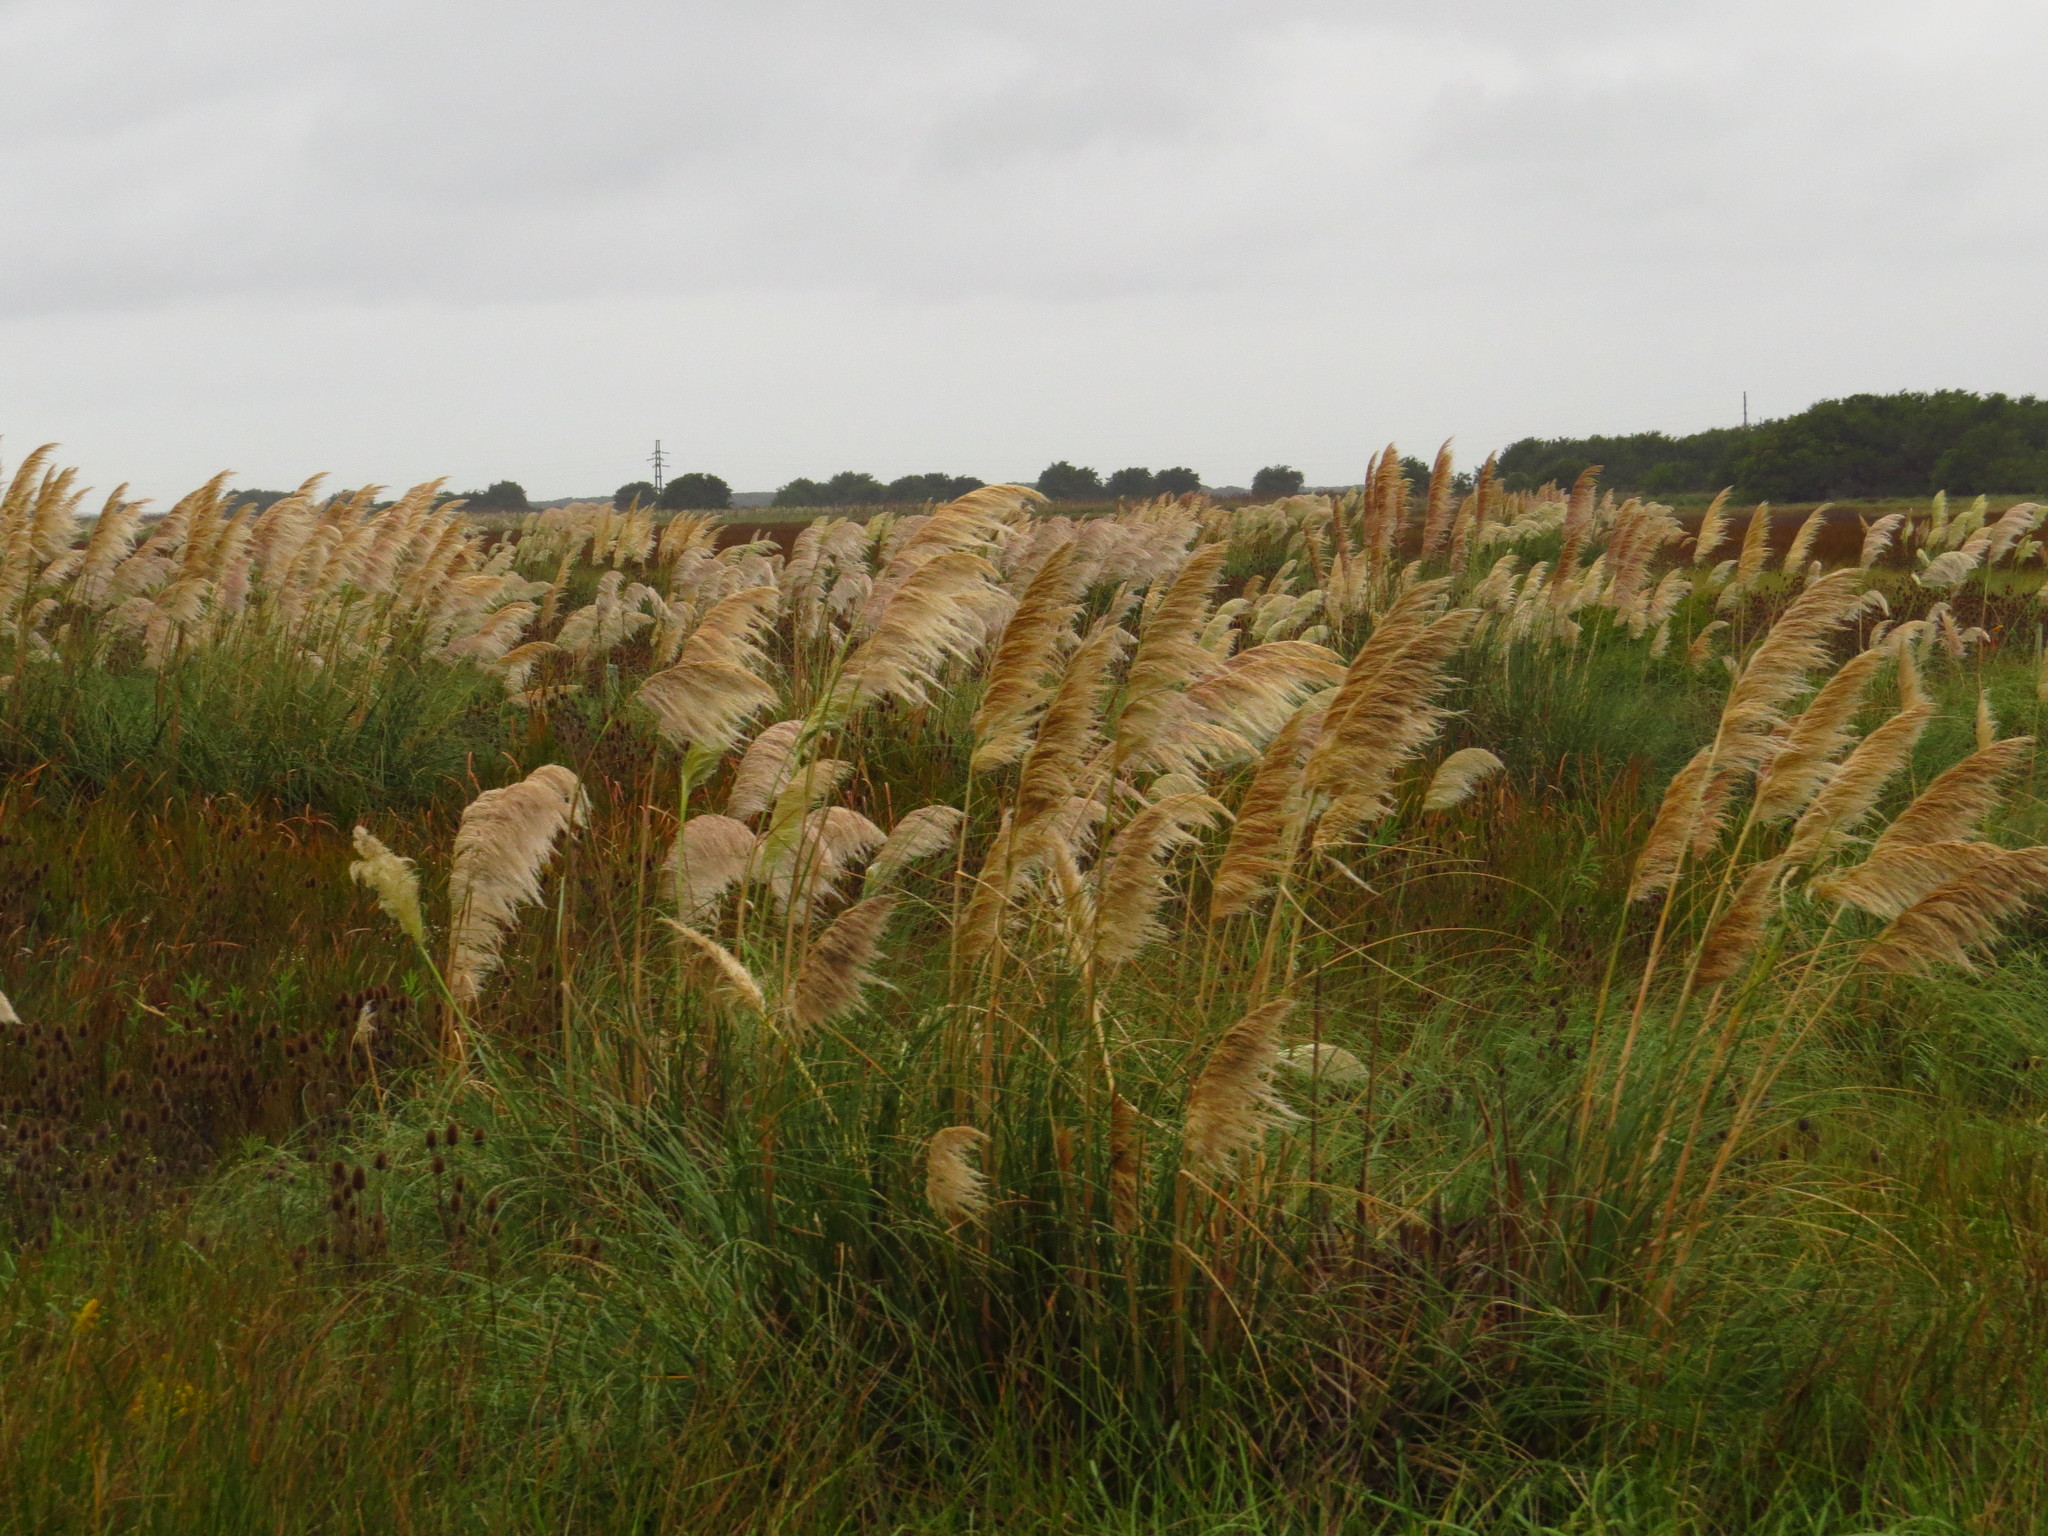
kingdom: Plantae
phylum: Tracheophyta
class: Liliopsida
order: Poales
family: Poaceae
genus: Cortaderia
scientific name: Cortaderia selloana
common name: Uruguayan pampas grass
